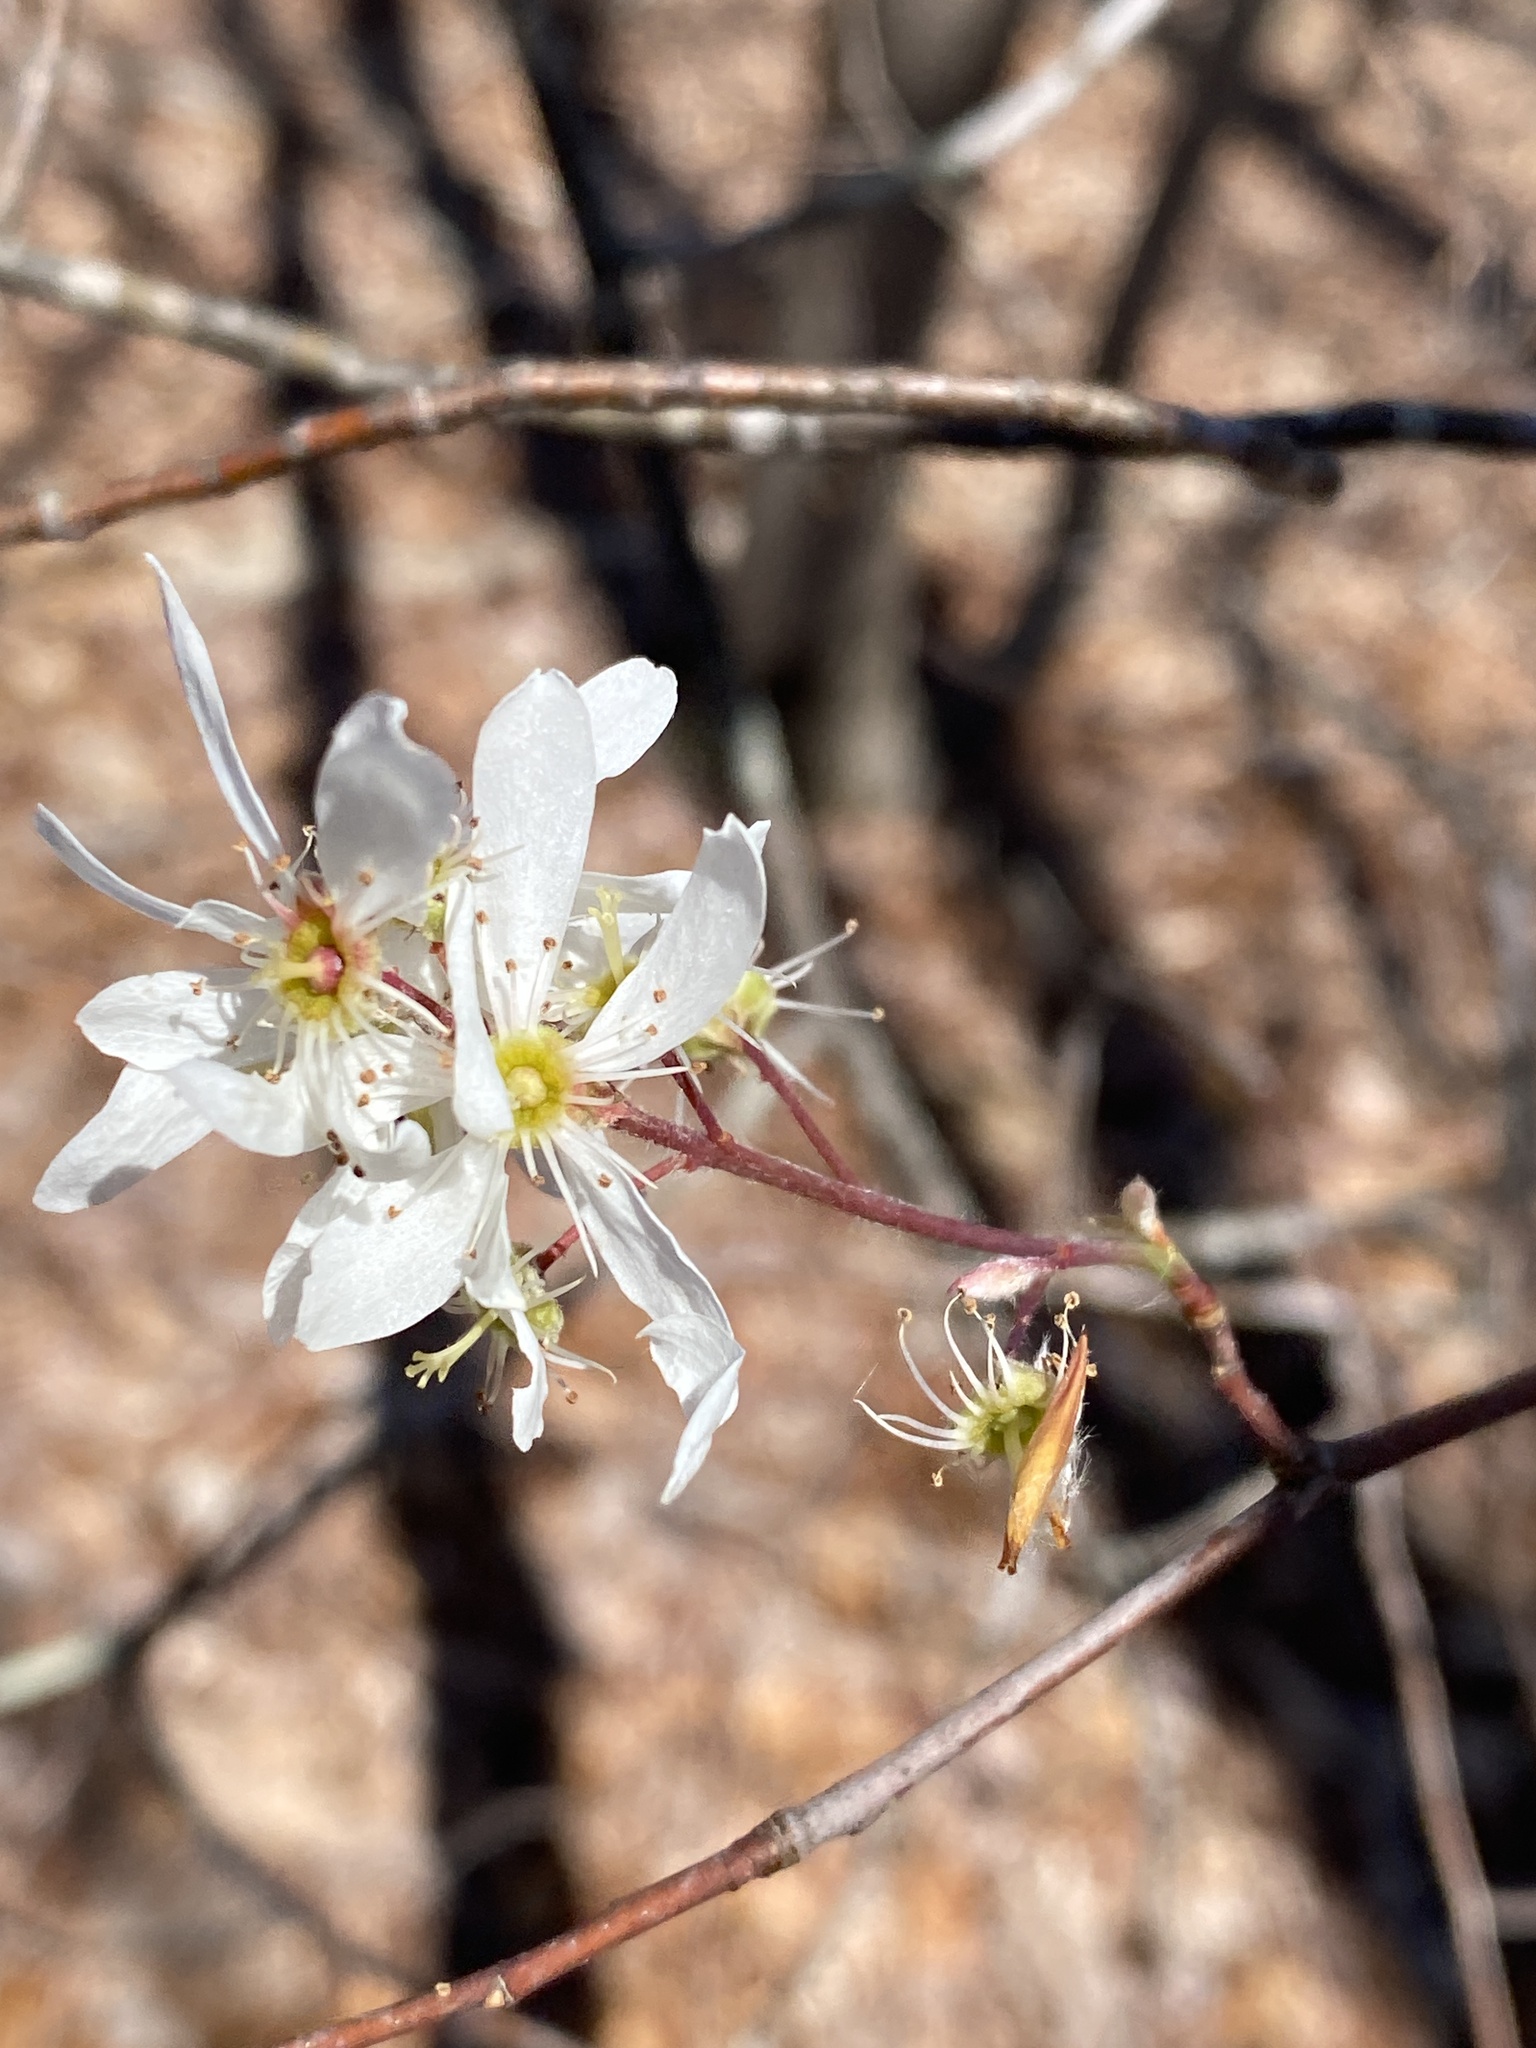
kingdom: Plantae
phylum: Tracheophyta
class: Magnoliopsida
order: Rosales
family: Rosaceae
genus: Amelanchier
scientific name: Amelanchier arborea
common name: Downy serviceberry
